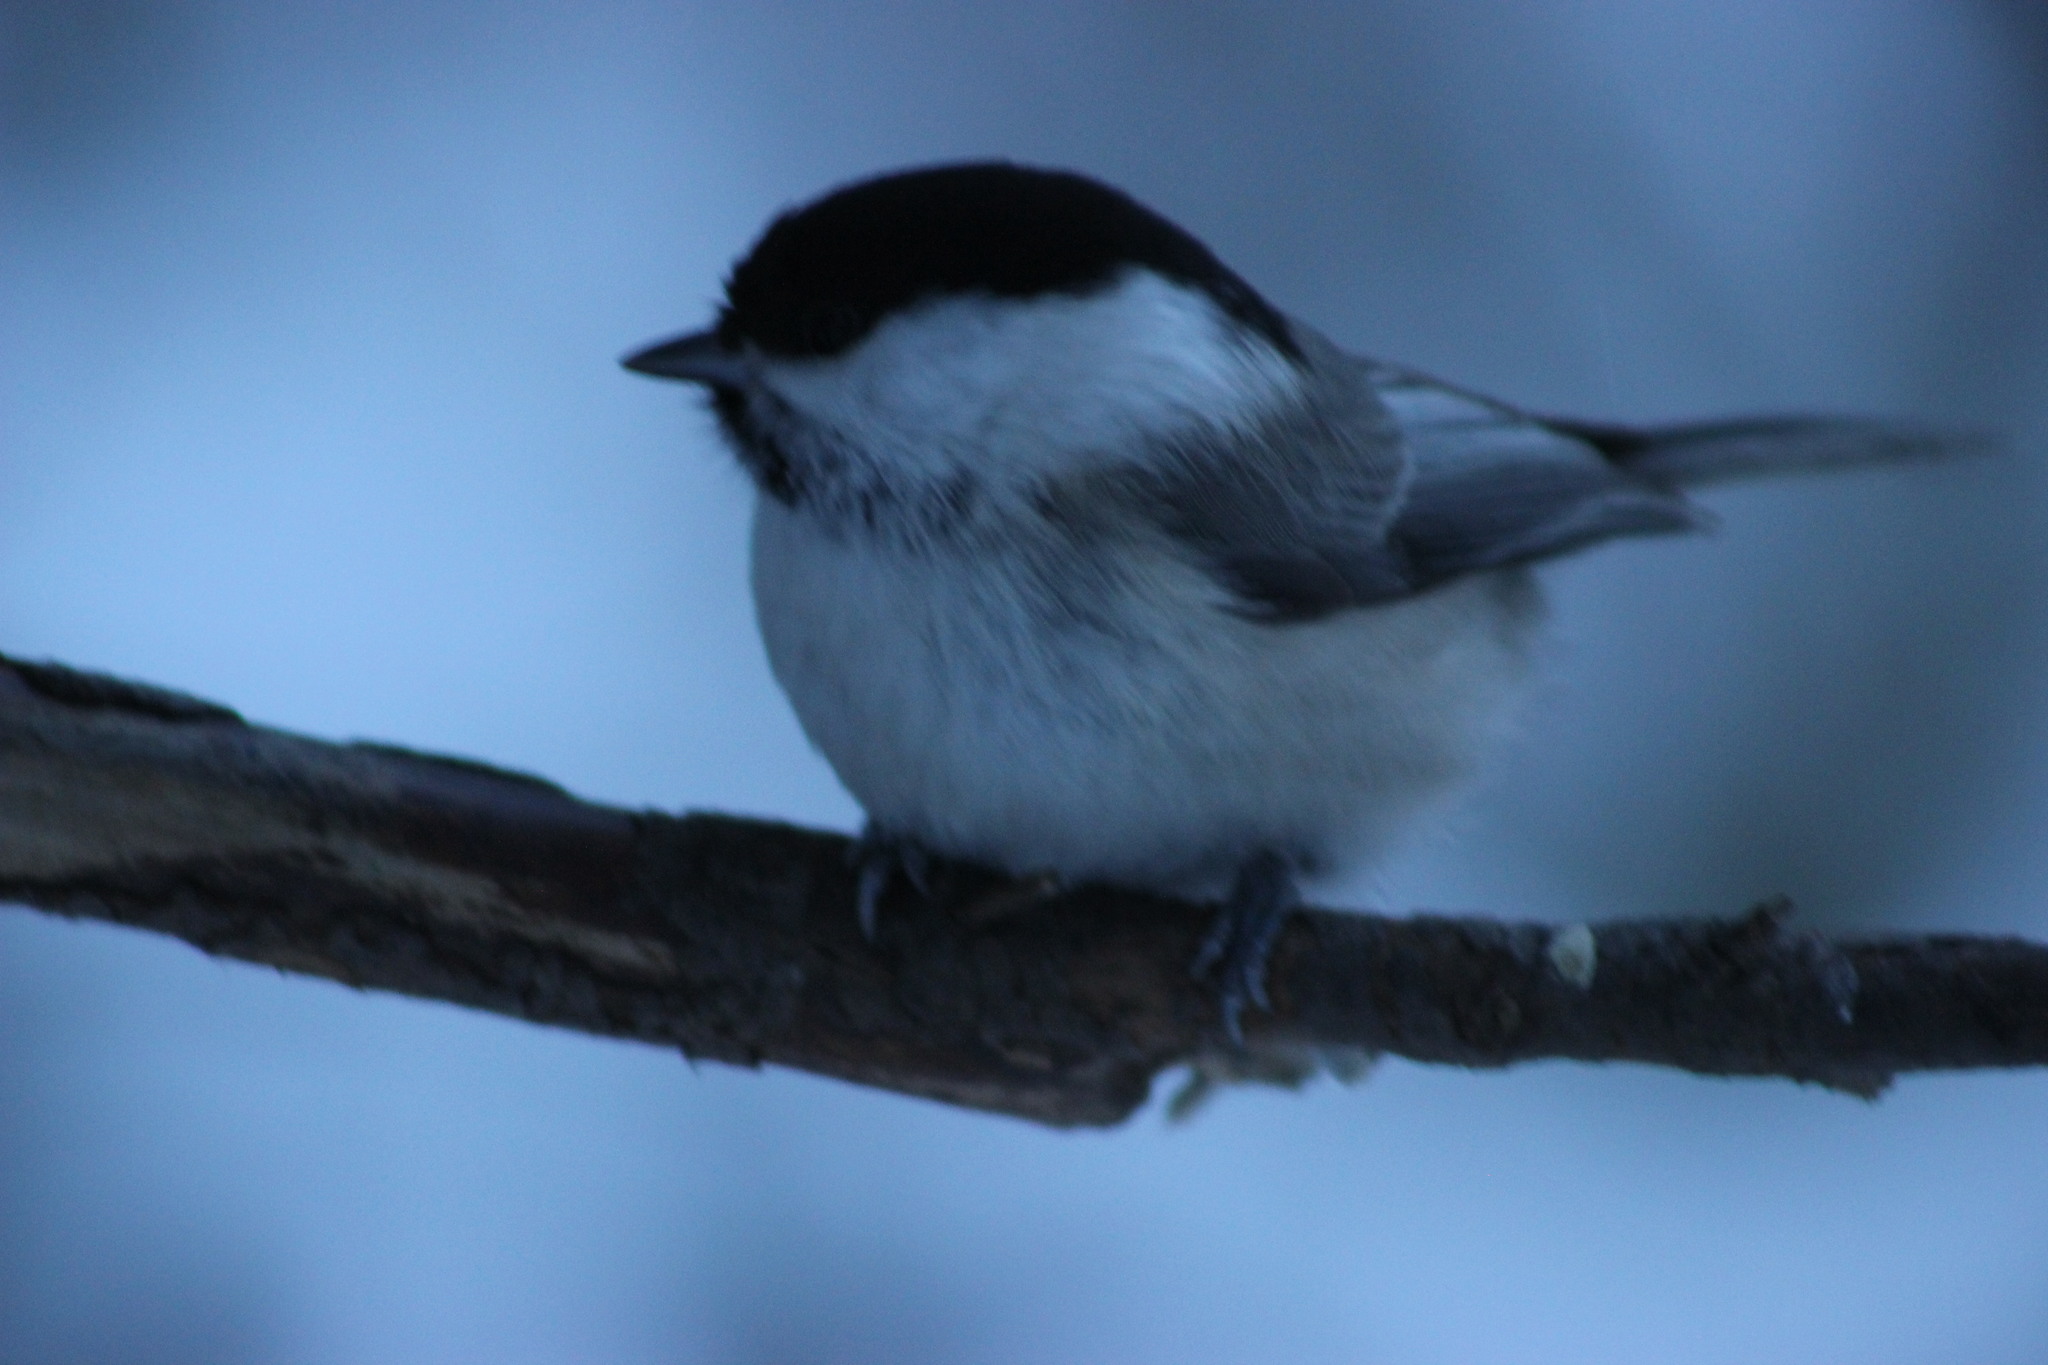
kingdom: Animalia
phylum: Chordata
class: Aves
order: Passeriformes
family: Paridae
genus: Poecile
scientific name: Poecile montanus
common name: Willow tit
